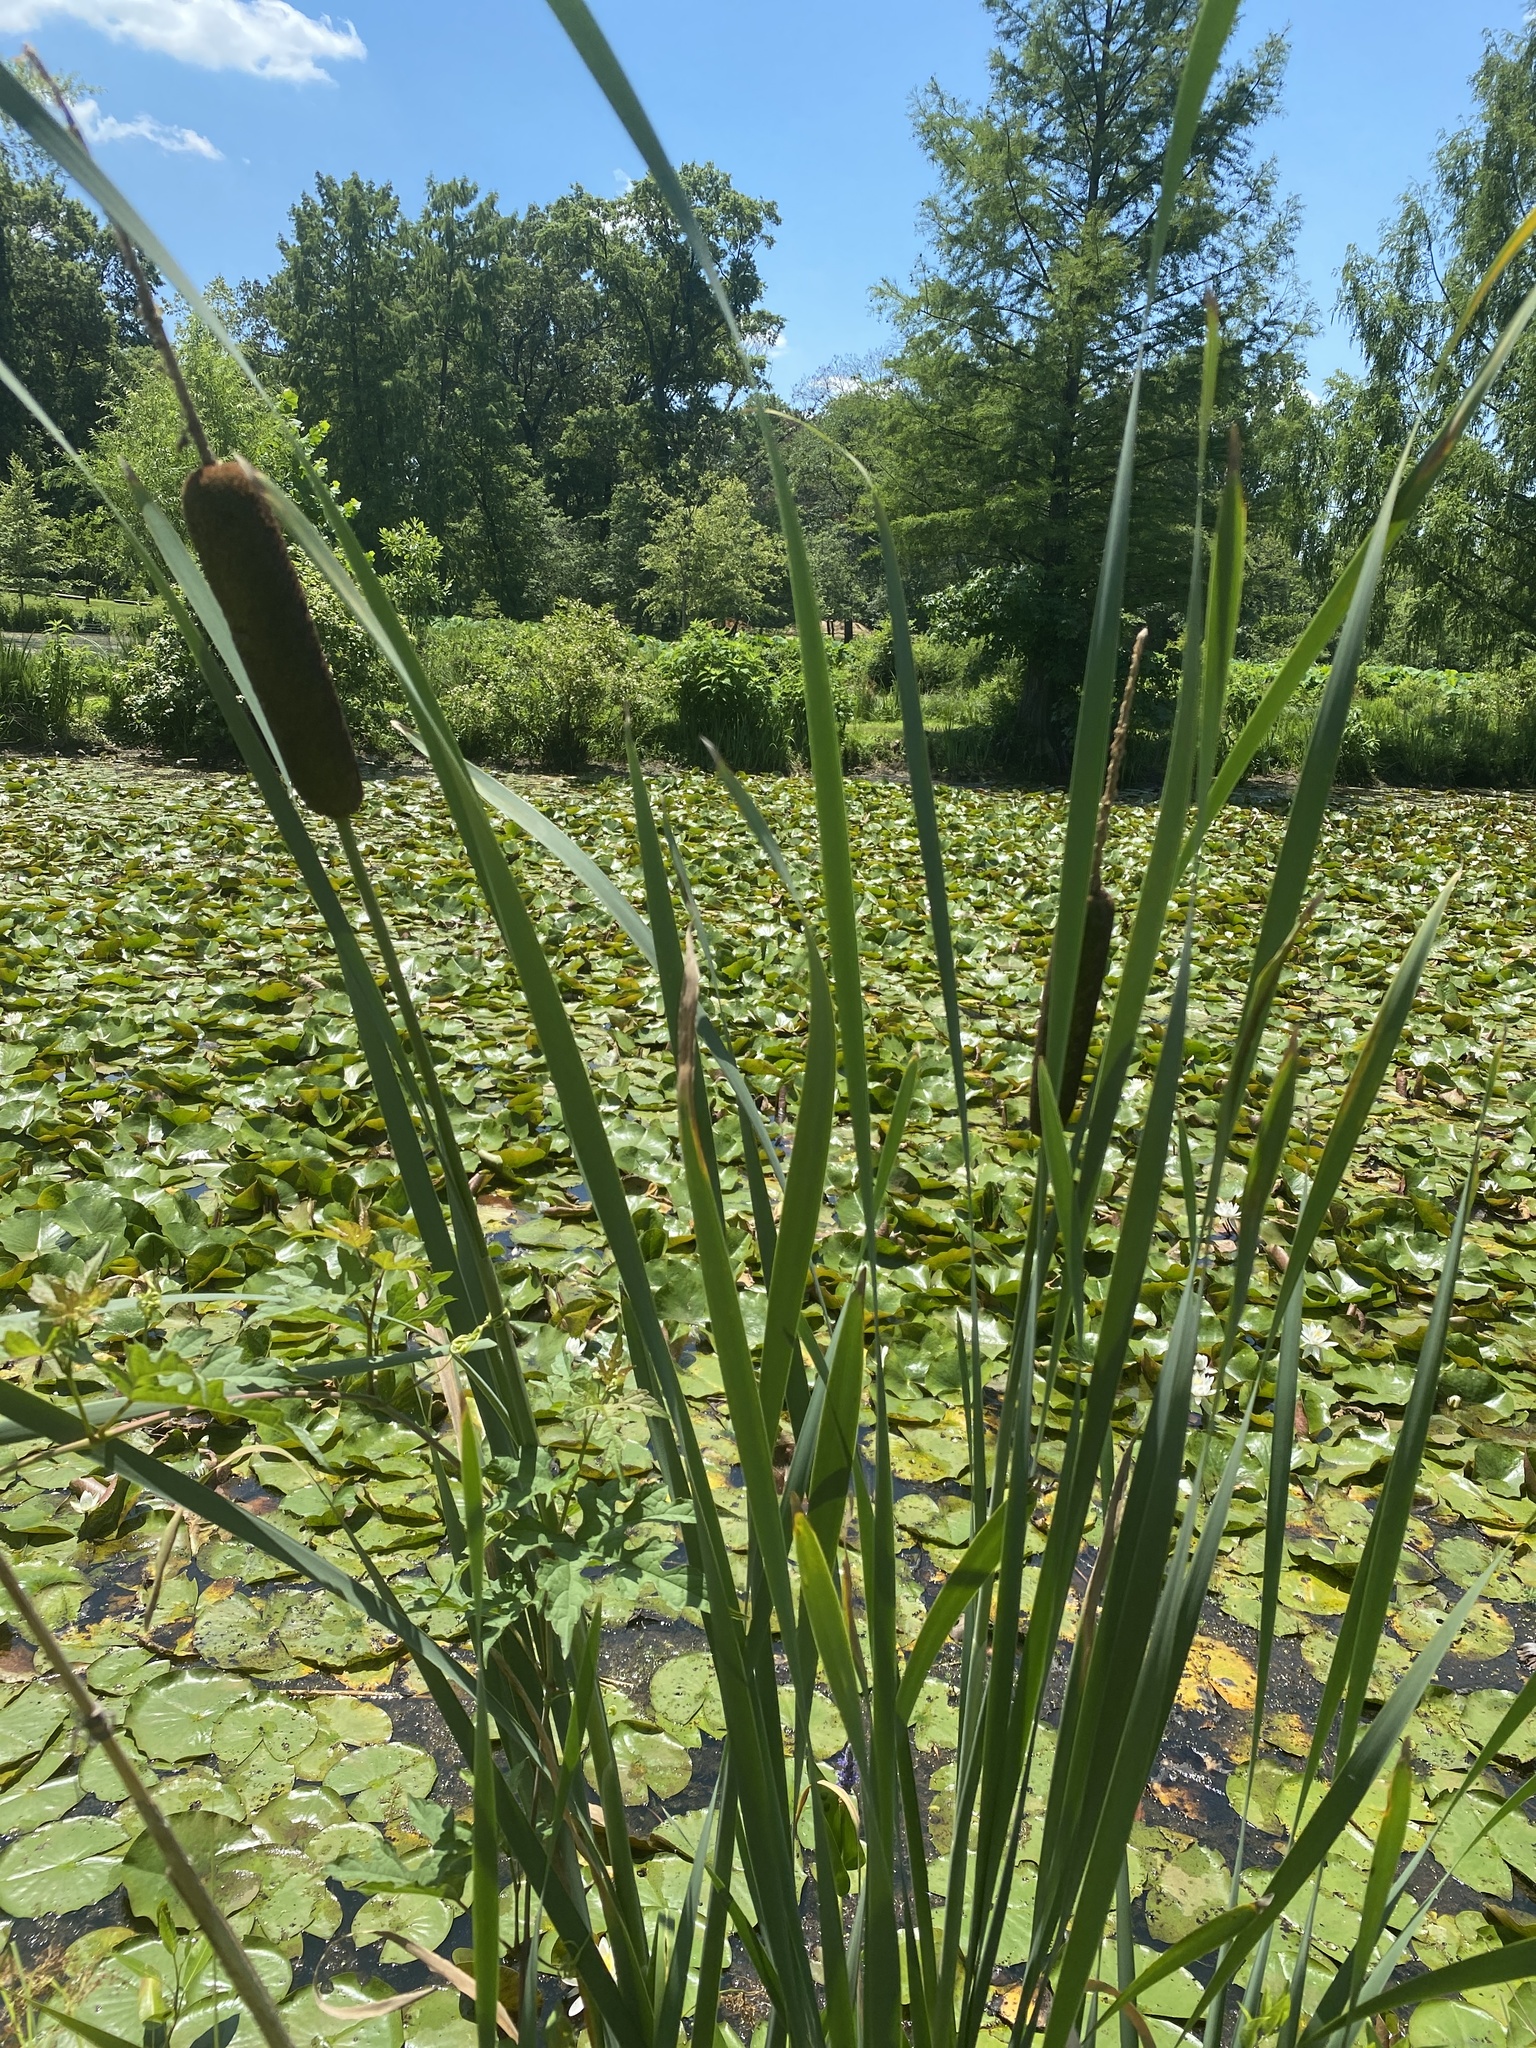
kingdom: Plantae
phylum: Tracheophyta
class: Liliopsida
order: Poales
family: Typhaceae
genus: Typha
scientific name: Typha angustifolia
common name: Lesser bulrush
